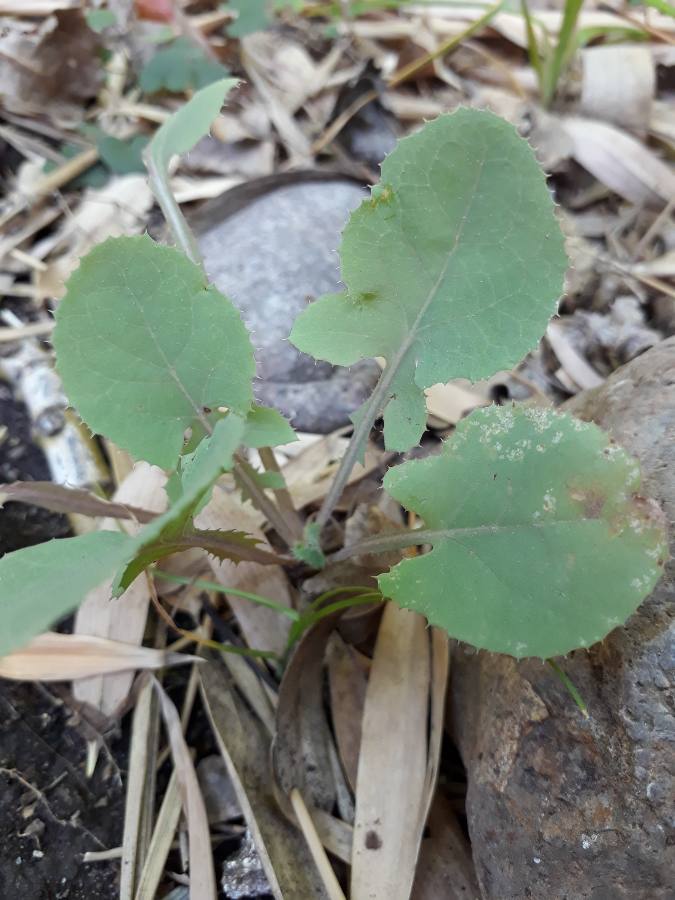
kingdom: Plantae
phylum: Tracheophyta
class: Magnoliopsida
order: Asterales
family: Asteraceae
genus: Sonchus
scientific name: Sonchus oleraceus
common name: Common sowthistle
